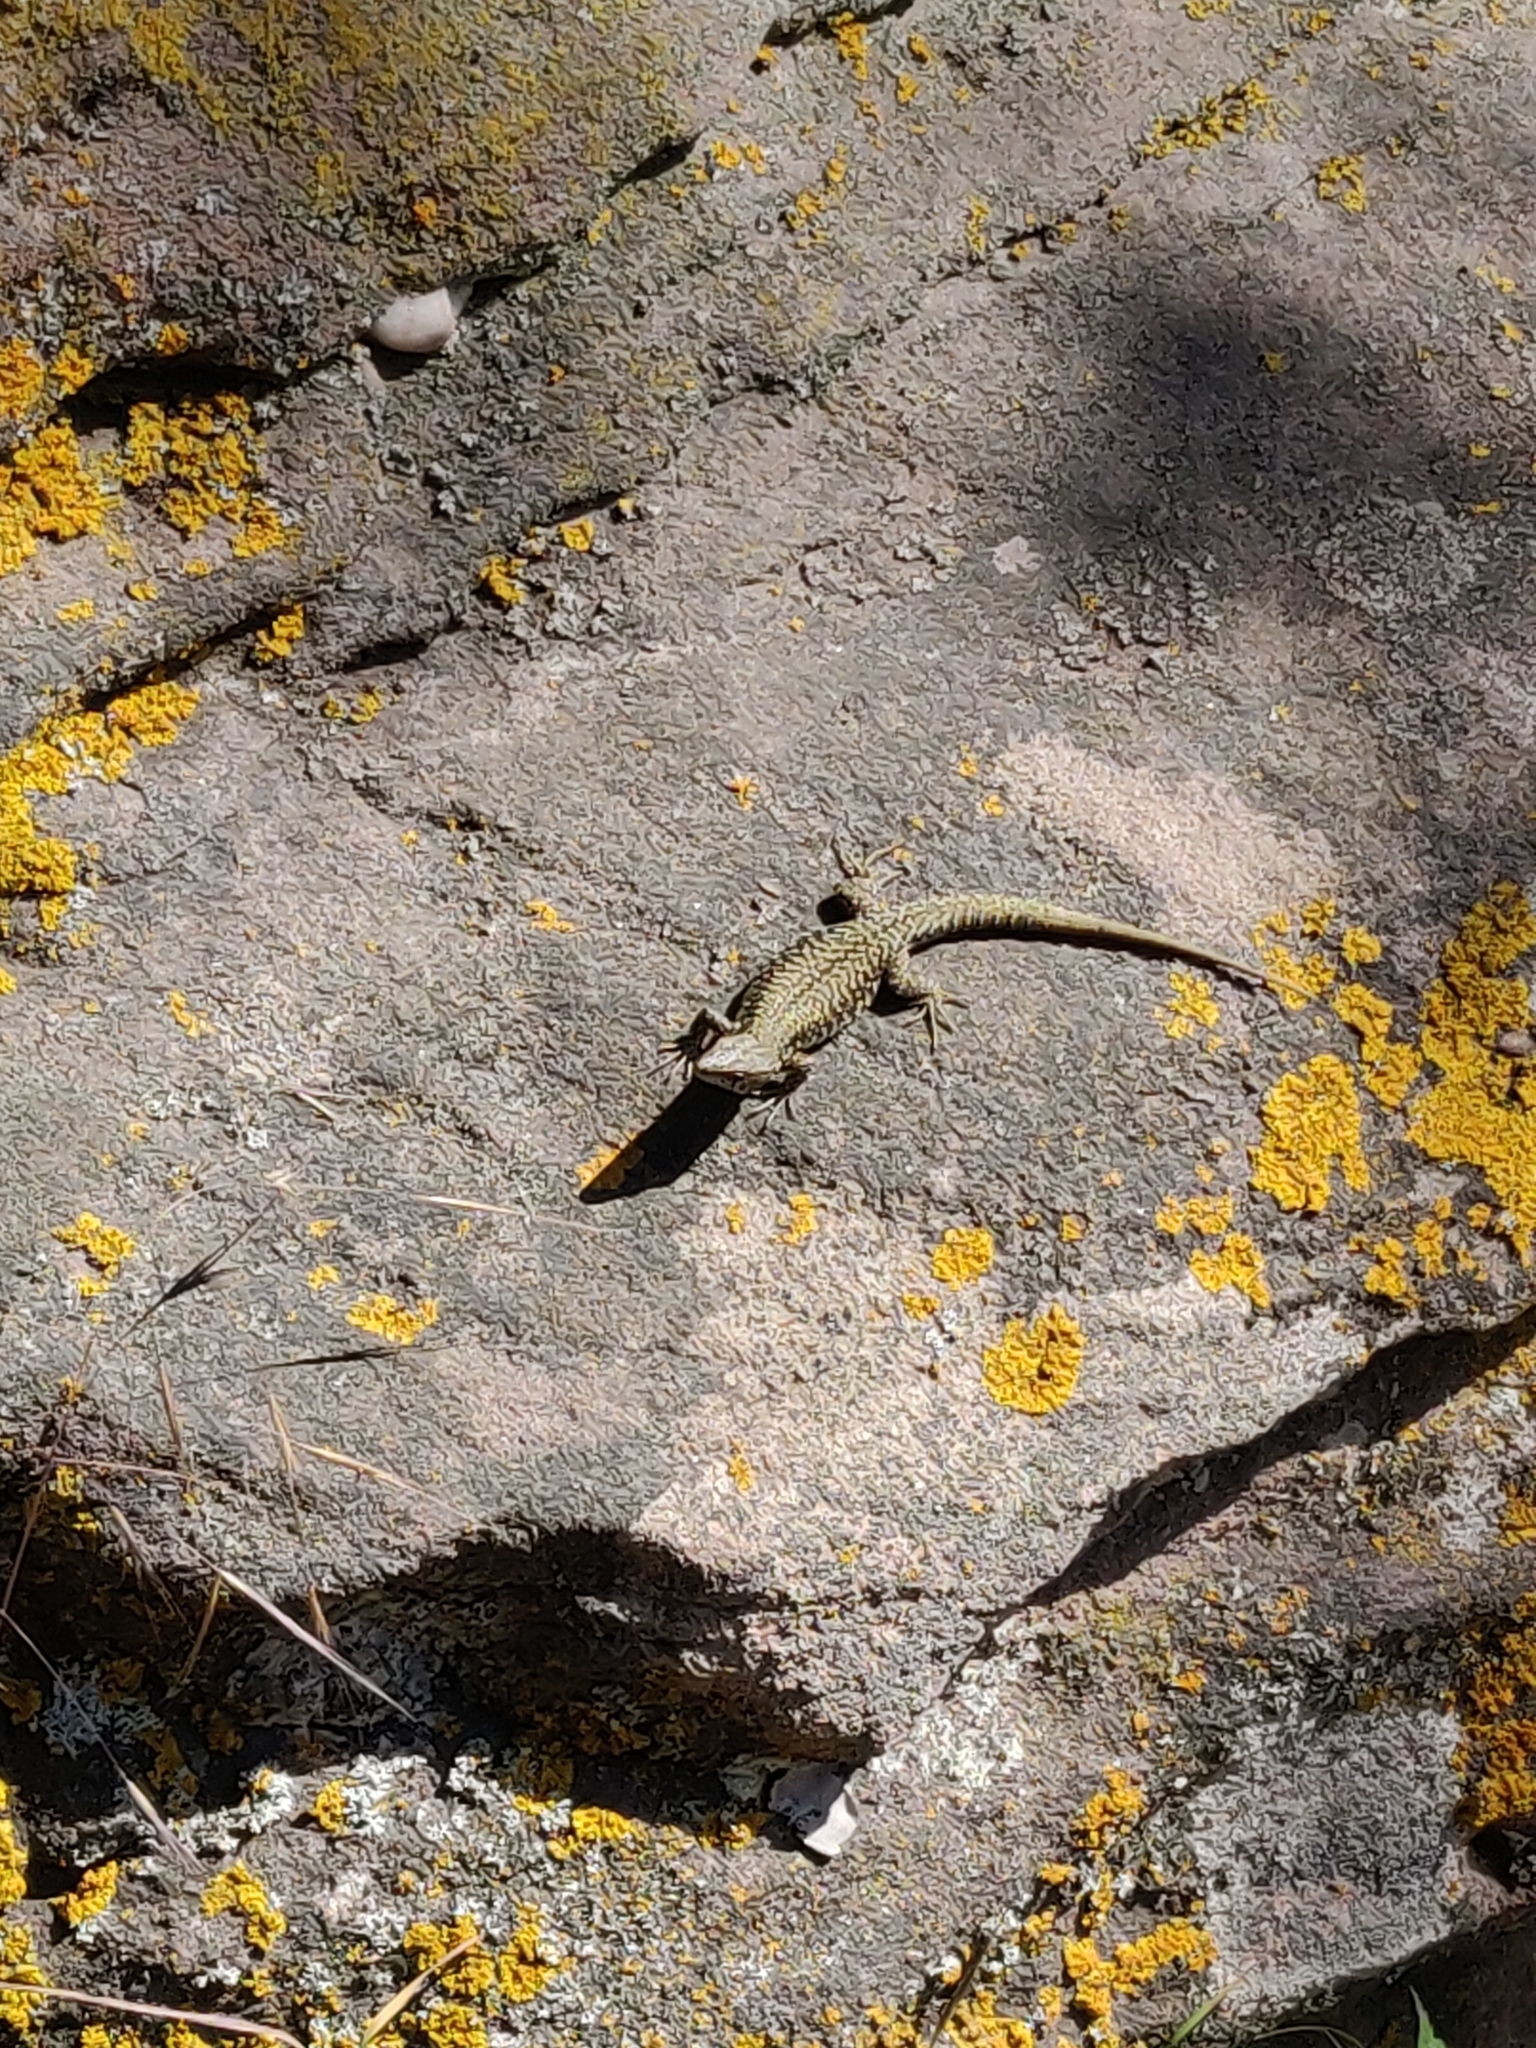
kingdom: Animalia
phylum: Chordata
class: Squamata
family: Lacertidae
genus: Podarcis
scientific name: Podarcis muralis
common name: Common wall lizard
